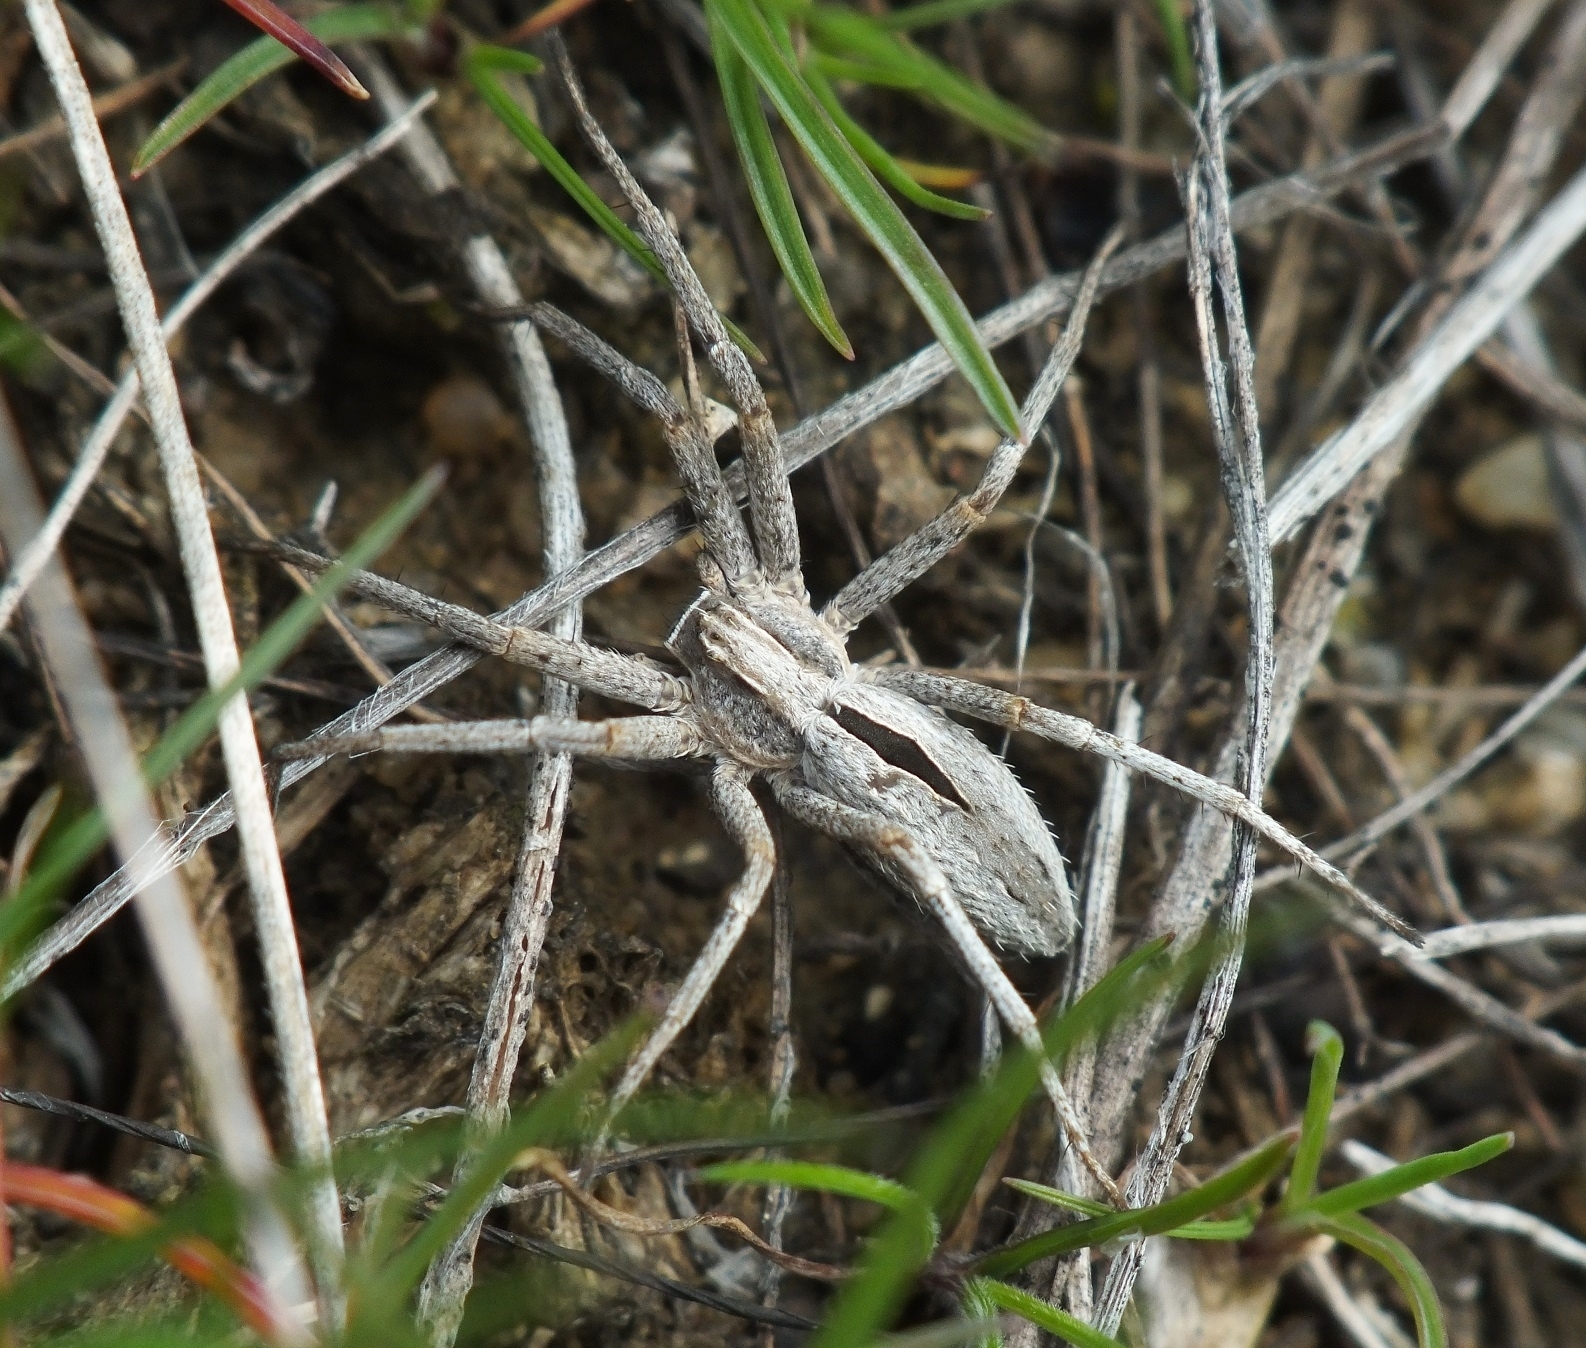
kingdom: Animalia
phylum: Arthropoda
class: Arachnida
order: Araneae
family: Philodromidae
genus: Thanatus
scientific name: Thanatus arenarius
